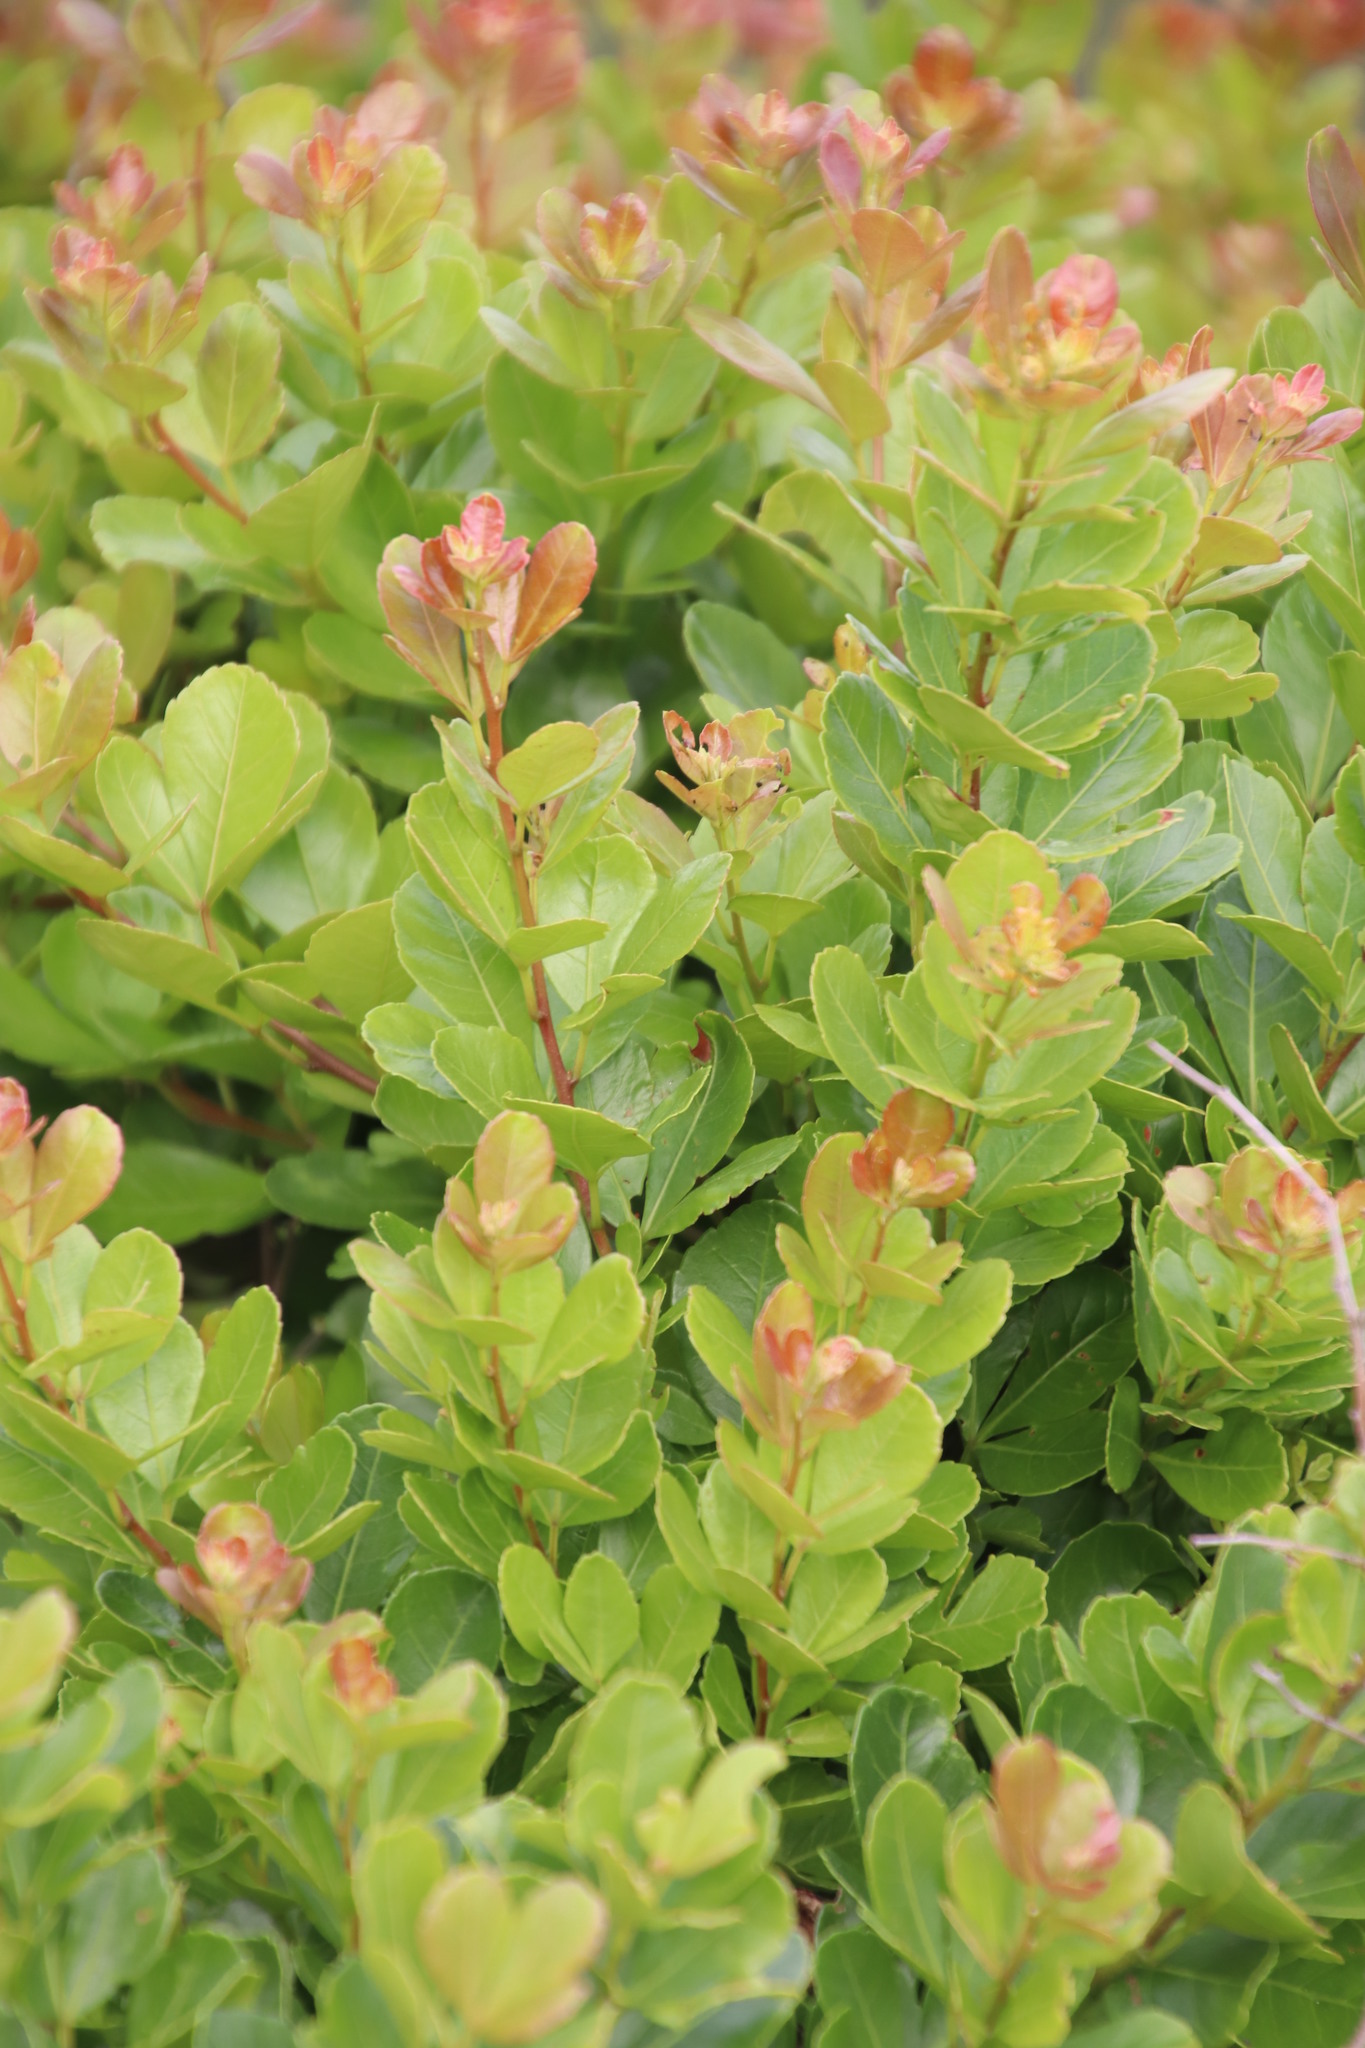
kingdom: Plantae
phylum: Tracheophyta
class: Magnoliopsida
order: Sapindales
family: Anacardiaceae
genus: Searsia
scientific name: Searsia crenata
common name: Crowberry
